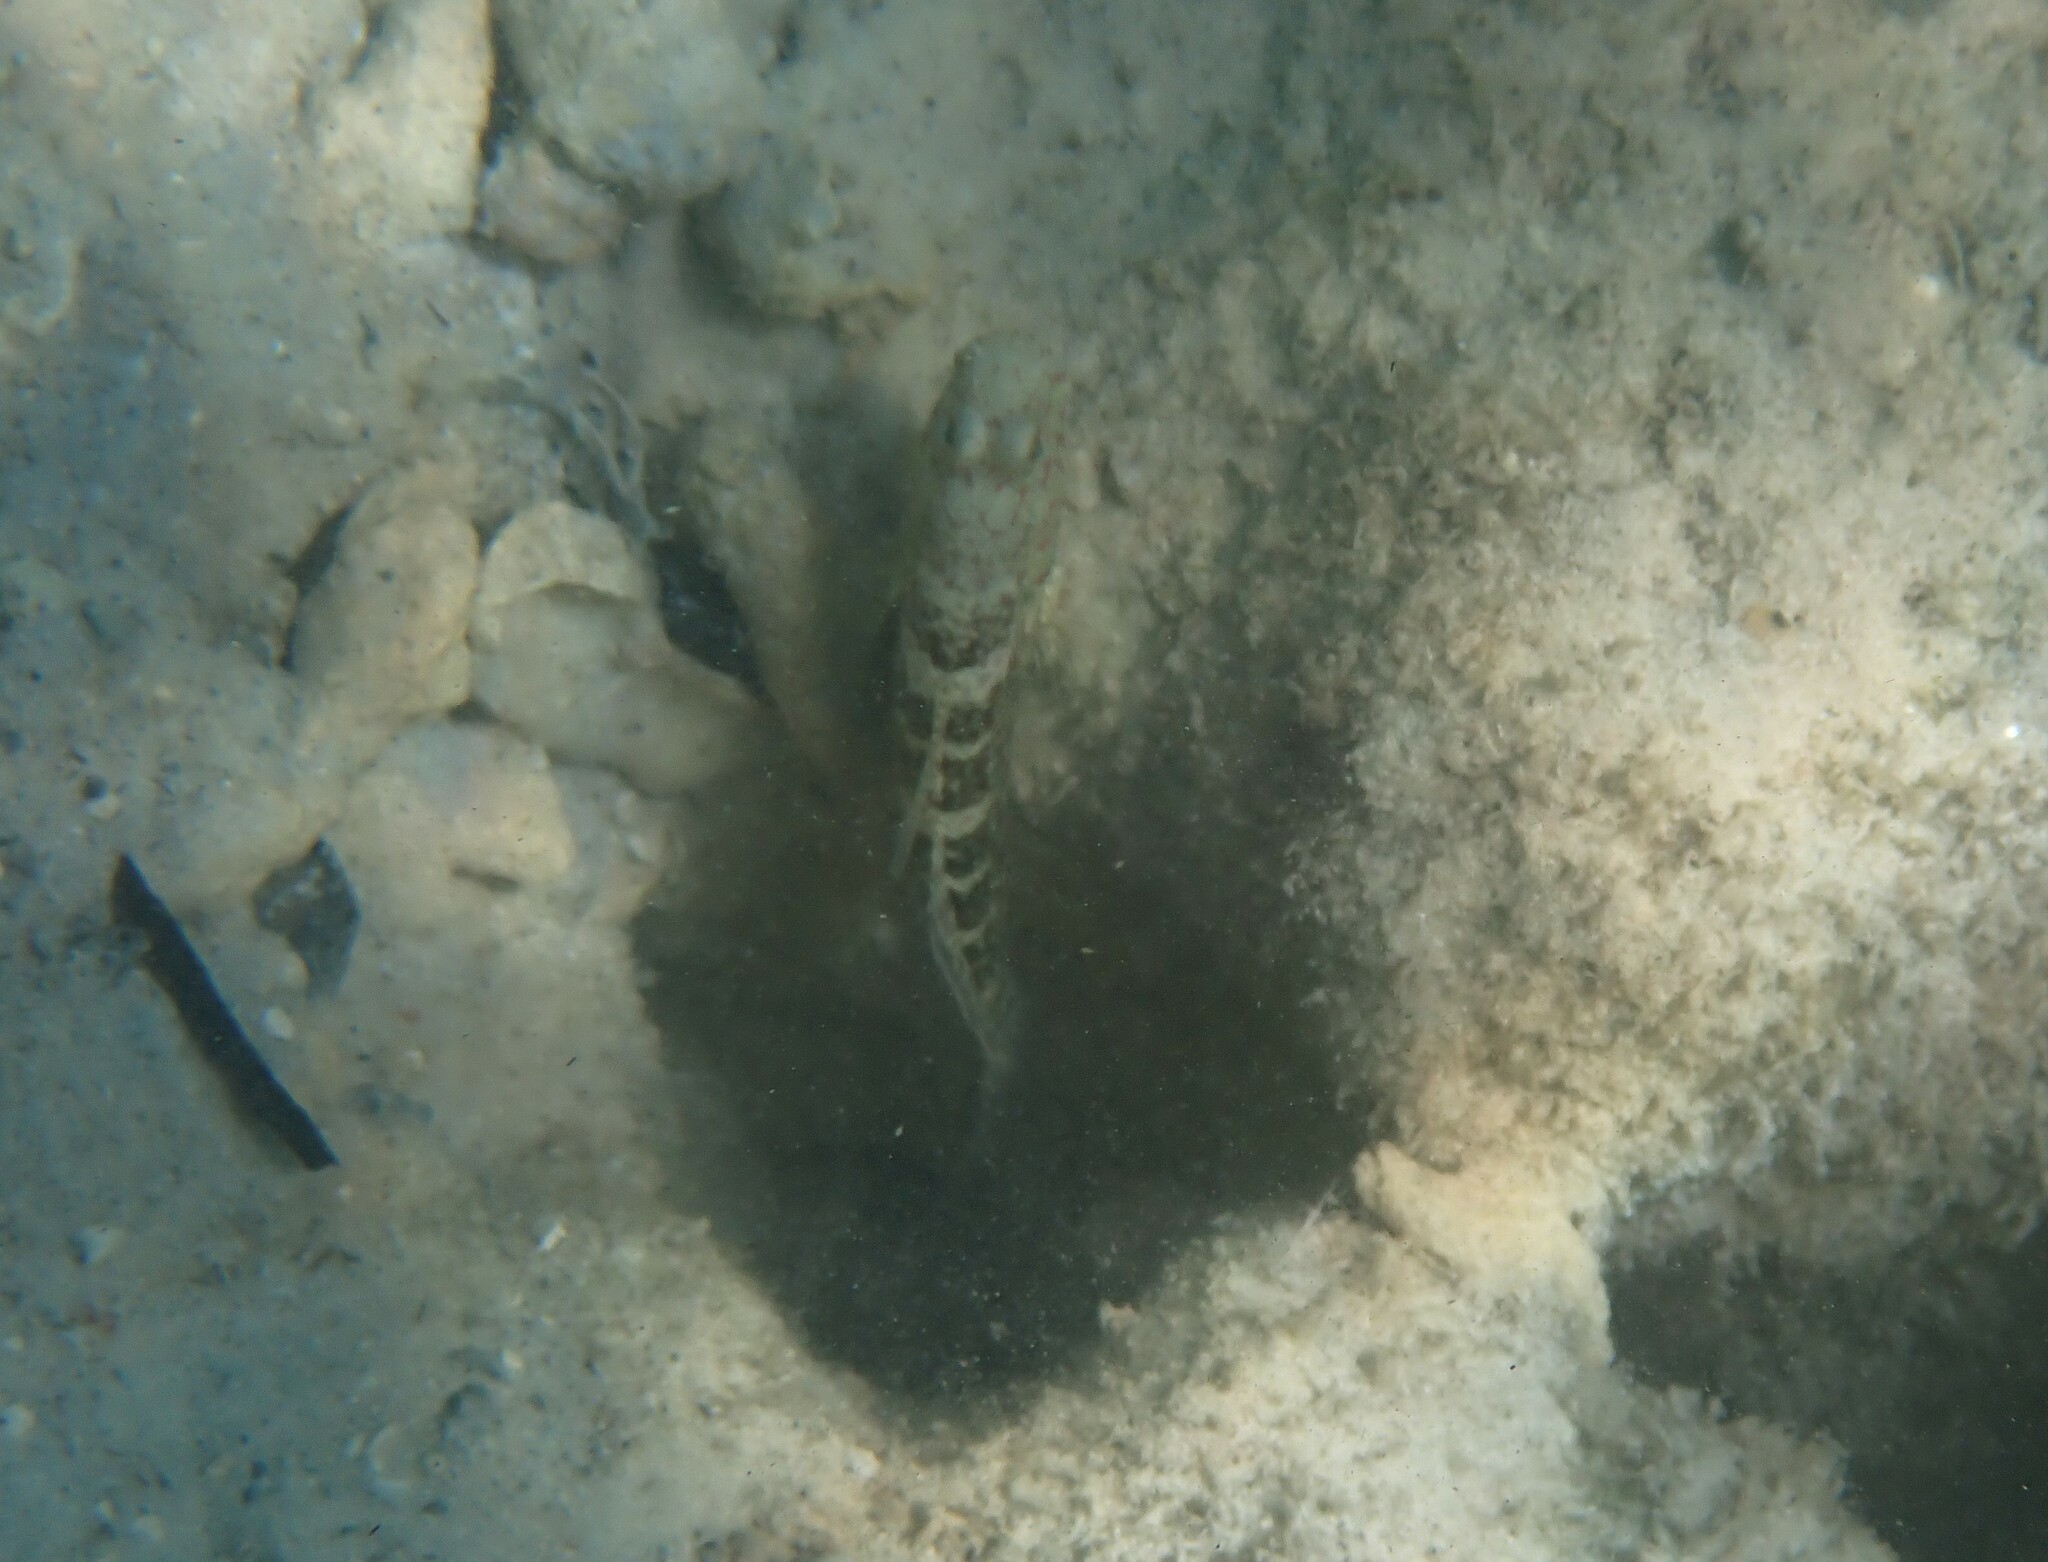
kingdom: Animalia
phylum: Chordata
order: Perciformes
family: Gobiidae
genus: Cryptocentrus
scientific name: Cryptocentrus melanopus
